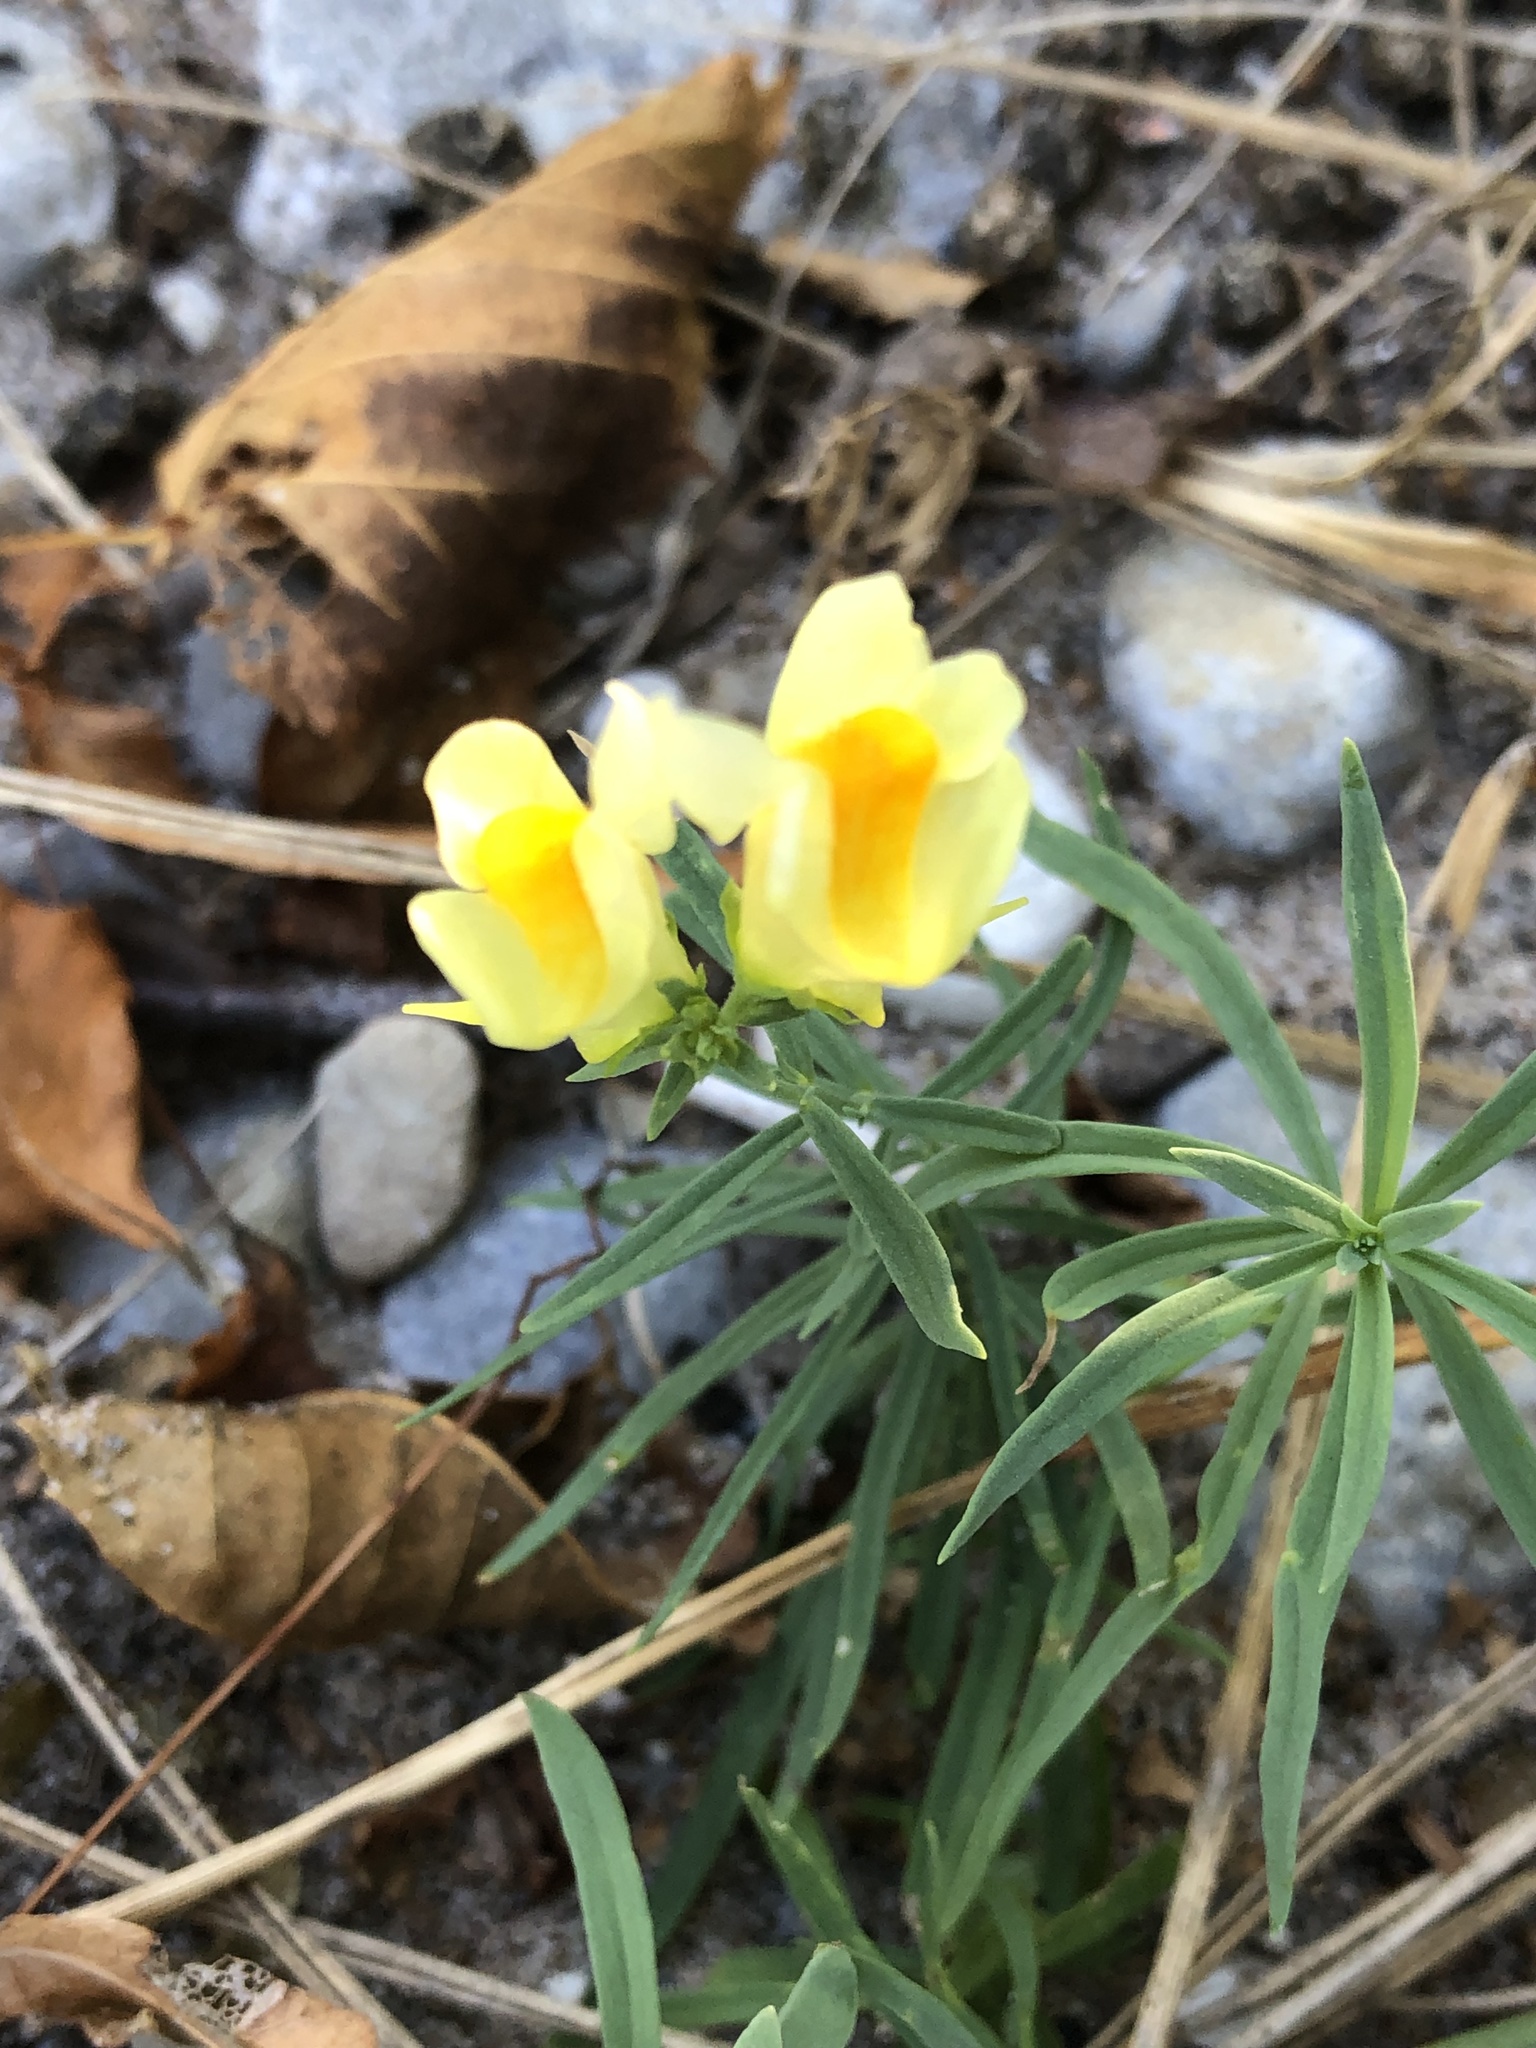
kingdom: Plantae
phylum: Tracheophyta
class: Magnoliopsida
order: Lamiales
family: Plantaginaceae
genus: Linaria
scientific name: Linaria vulgaris
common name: Butter and eggs
